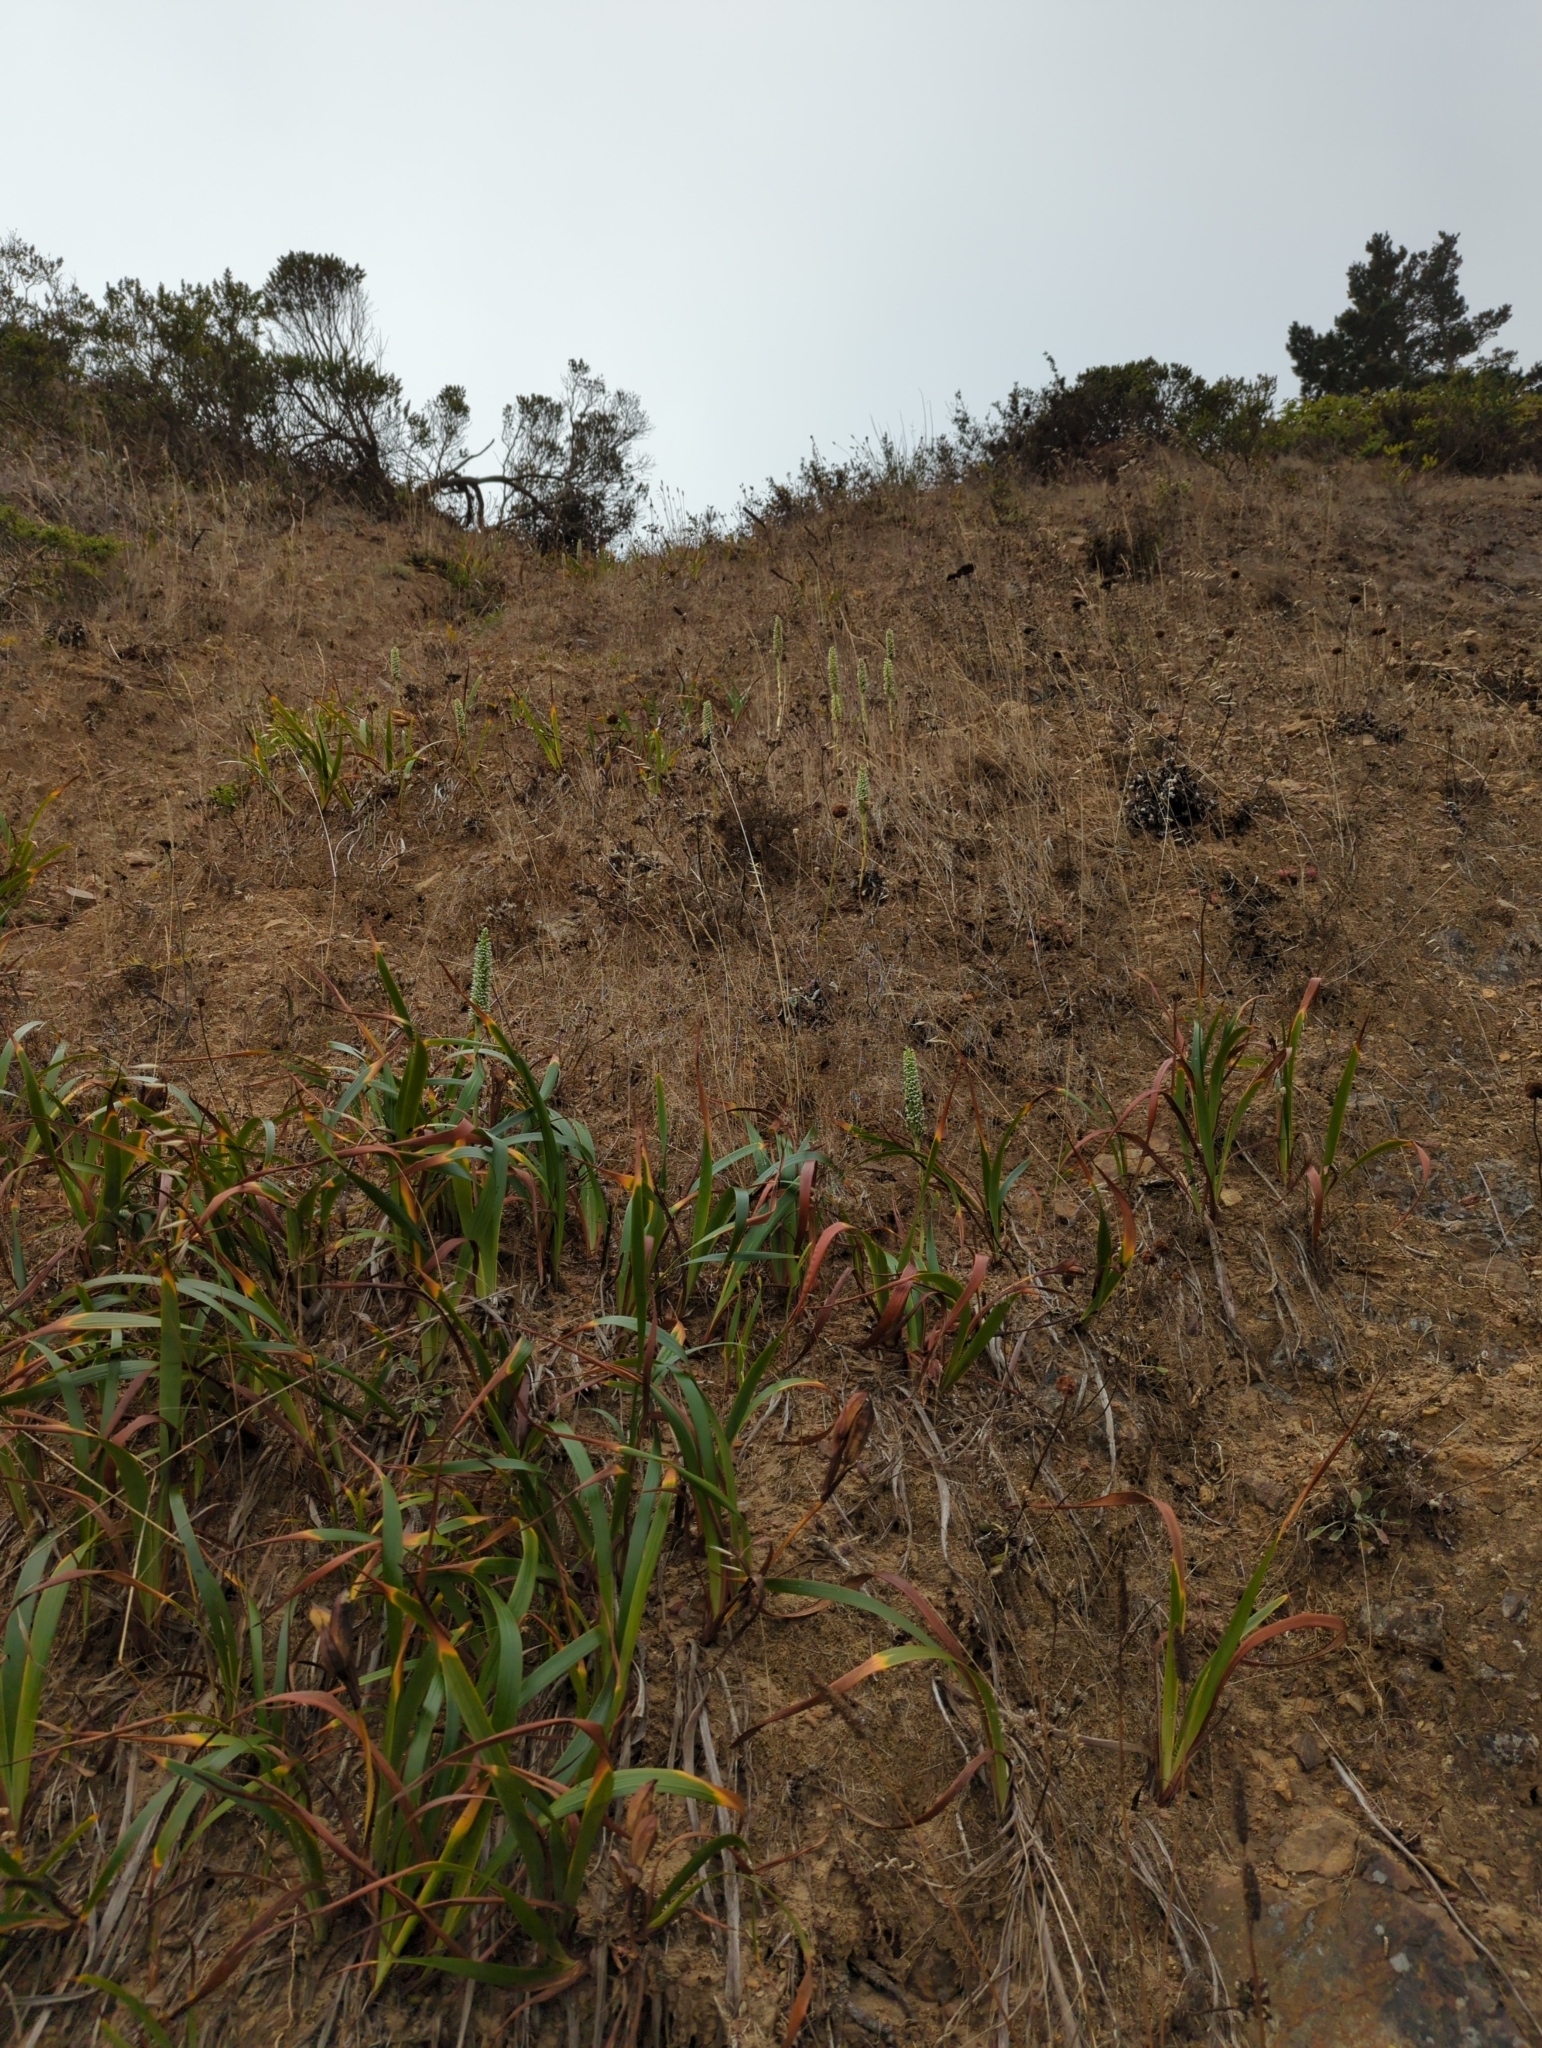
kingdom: Plantae
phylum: Tracheophyta
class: Liliopsida
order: Asparagales
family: Orchidaceae
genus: Platanthera
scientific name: Platanthera elegans
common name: Coast piperia
